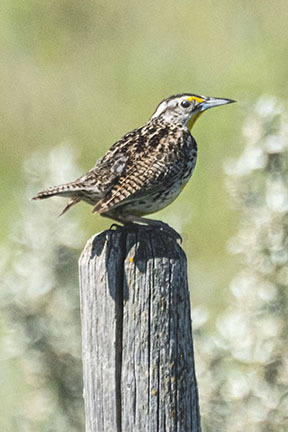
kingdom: Animalia
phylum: Chordata
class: Aves
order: Passeriformes
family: Icteridae
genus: Sturnella
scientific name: Sturnella neglecta
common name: Western meadowlark
